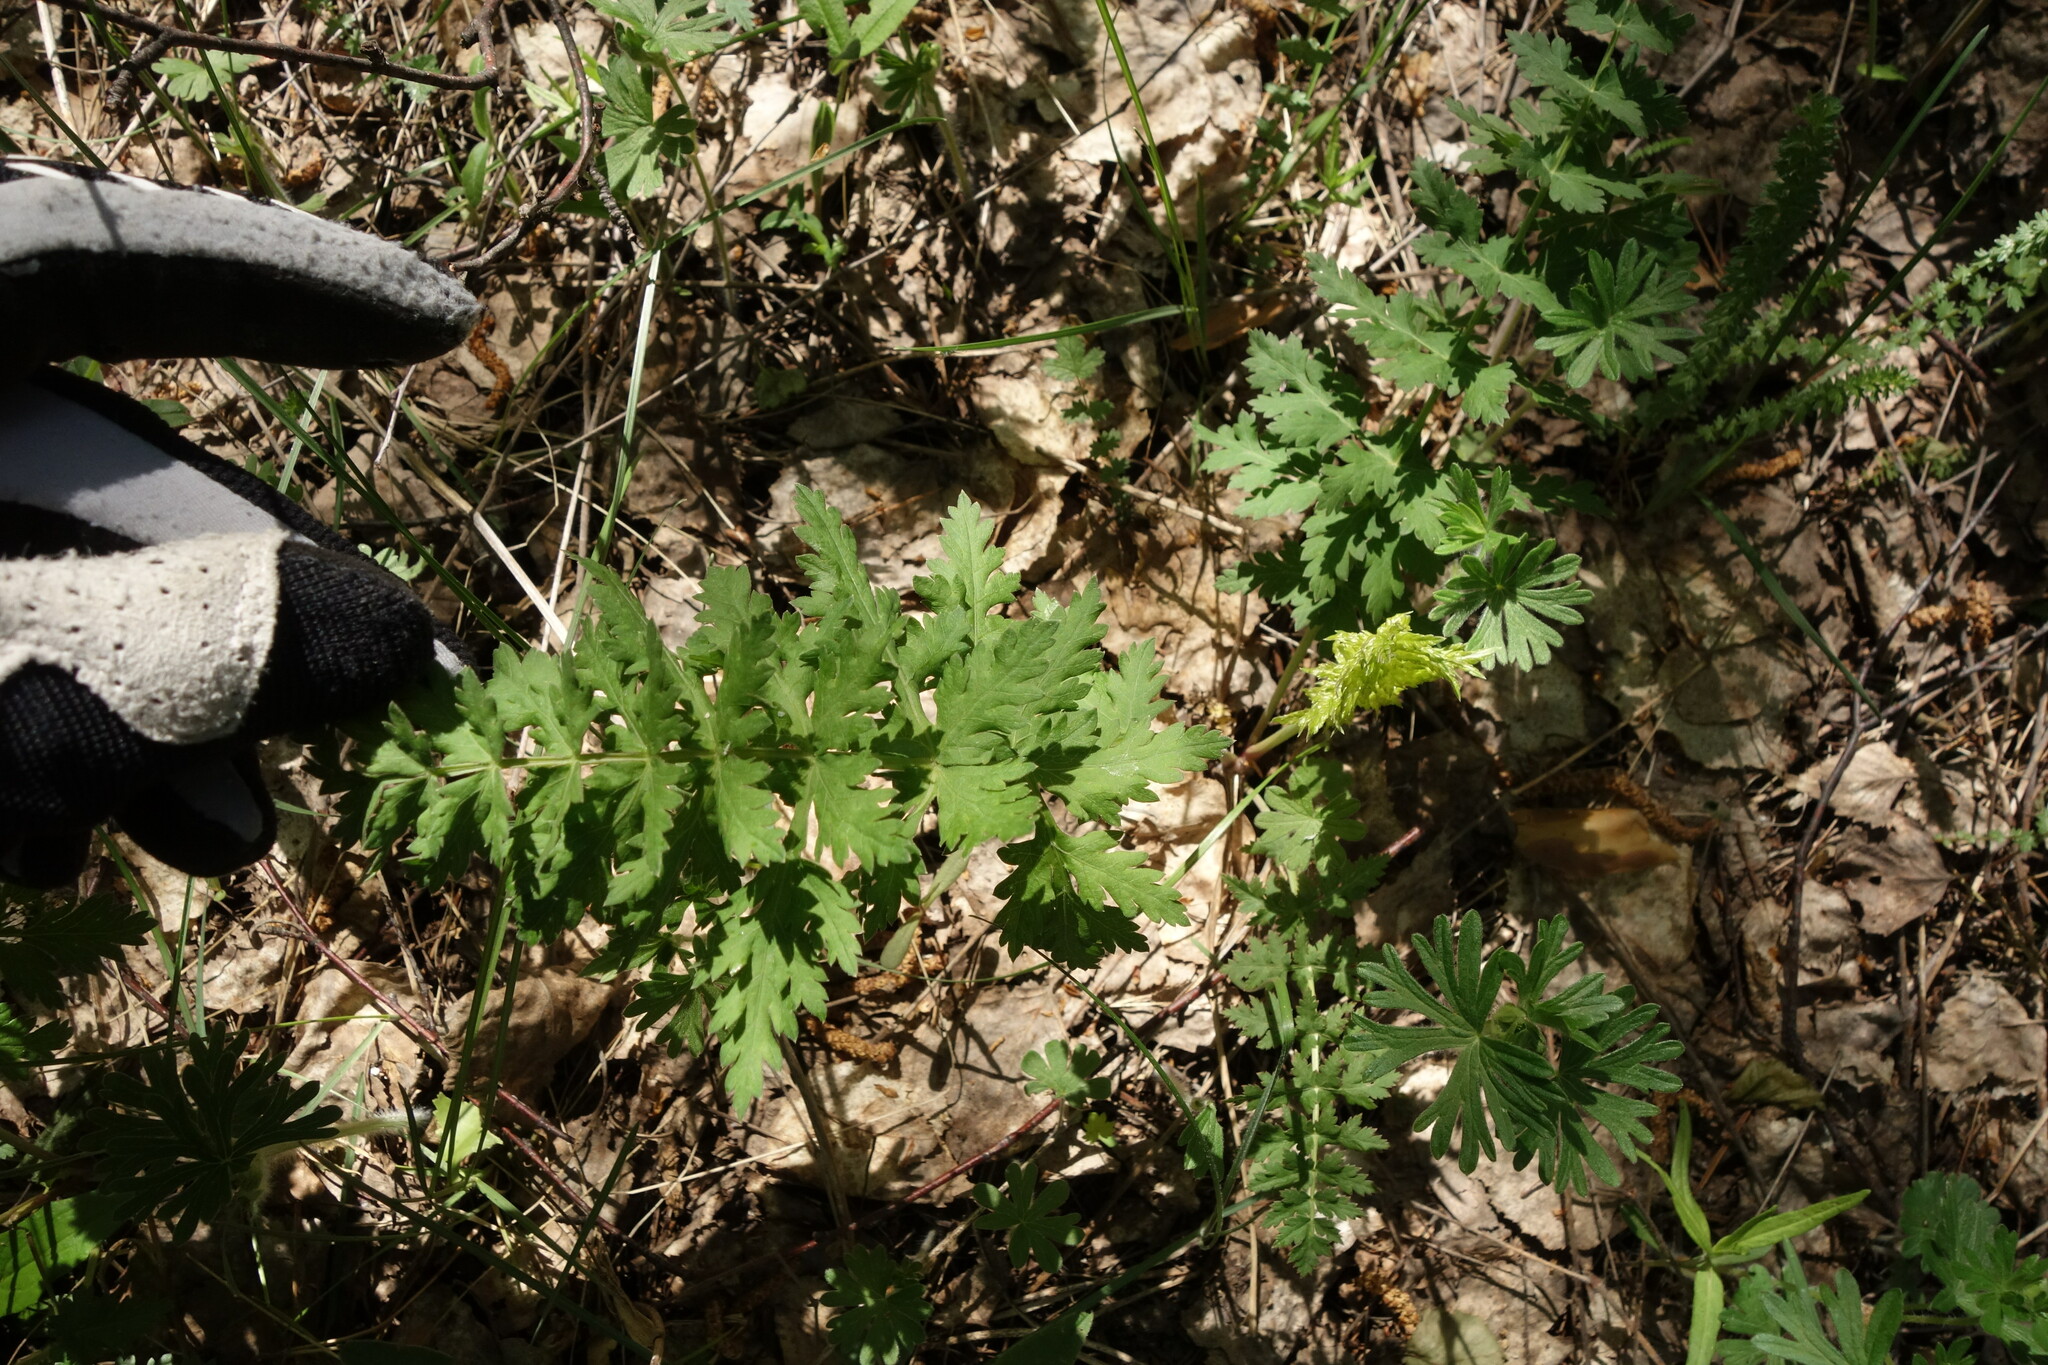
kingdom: Plantae
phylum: Tracheophyta
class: Magnoliopsida
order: Apiales
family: Apiaceae
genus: Seseli
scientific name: Seseli libanotis
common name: Mooncarrot
